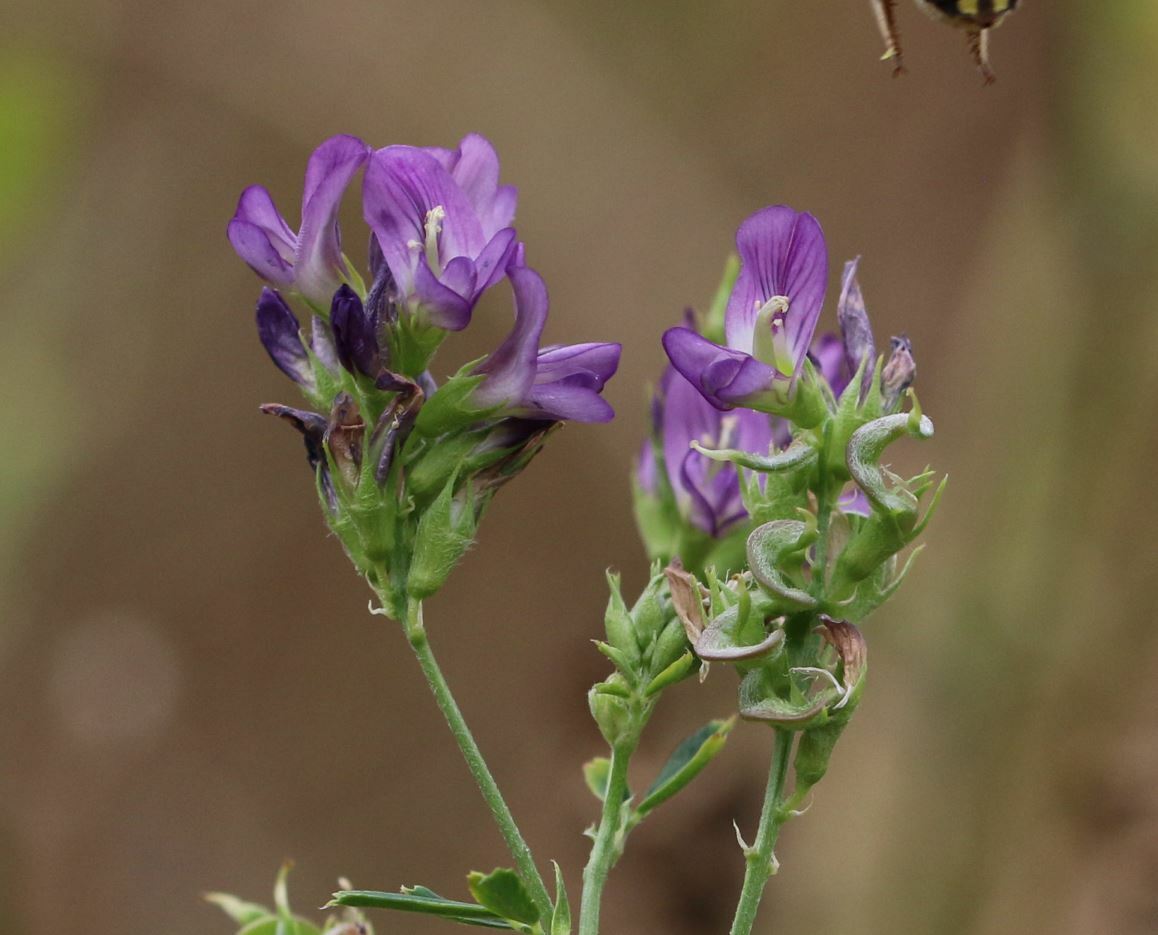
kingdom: Plantae
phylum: Tracheophyta
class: Magnoliopsida
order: Fabales
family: Fabaceae
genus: Medicago
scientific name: Medicago sativa
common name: Alfalfa
